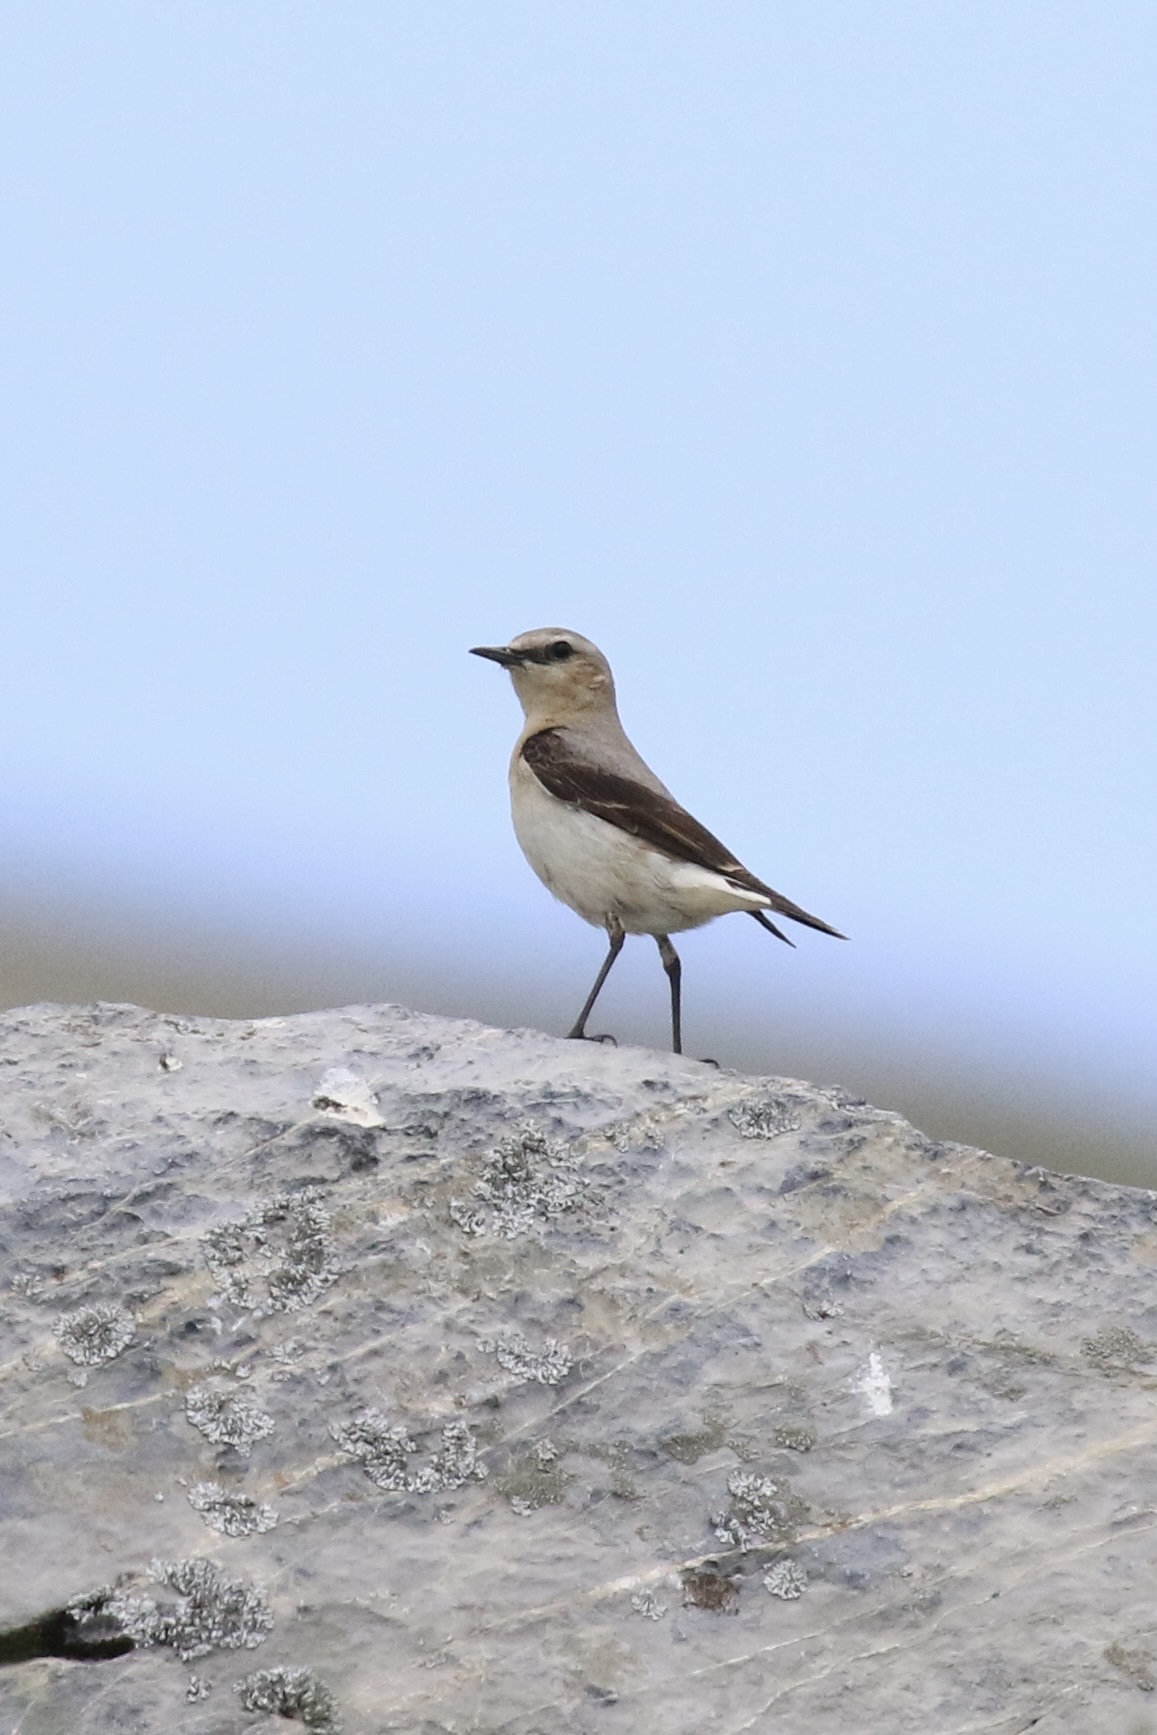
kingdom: Animalia
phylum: Chordata
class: Aves
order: Passeriformes
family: Muscicapidae
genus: Oenanthe
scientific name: Oenanthe oenanthe
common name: Northern wheatear
